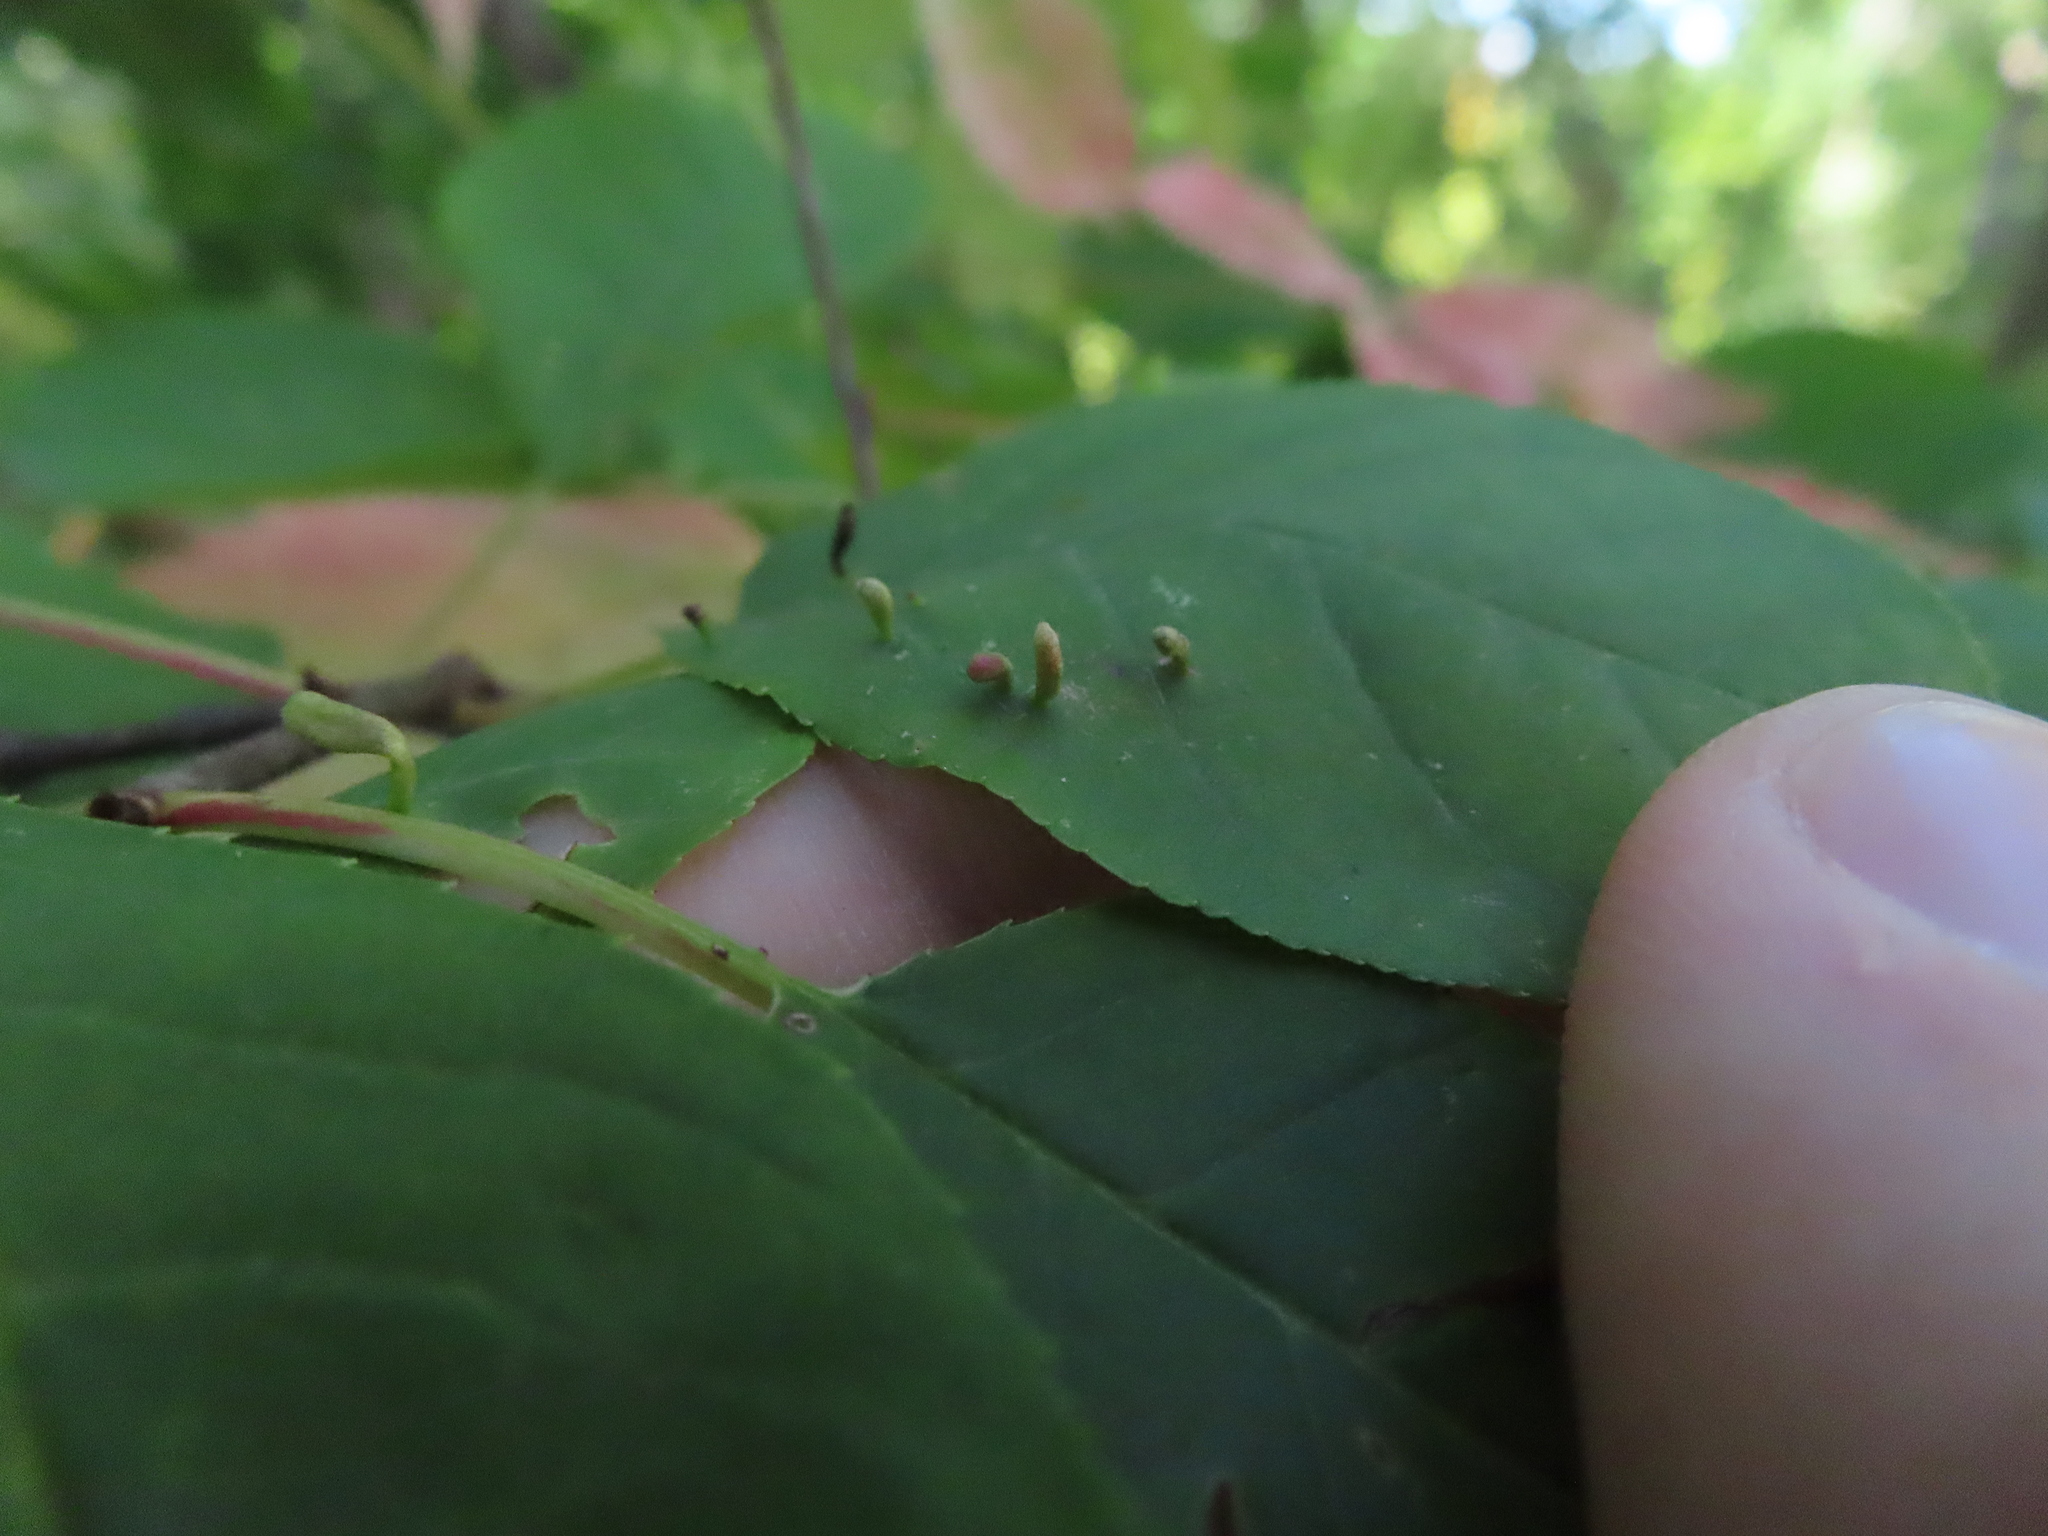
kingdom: Animalia
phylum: Arthropoda
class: Arachnida
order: Trombidiformes
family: Eriophyidae
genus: Eriophyes
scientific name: Eriophyes emarginatae
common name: Plum leaf gall mite
